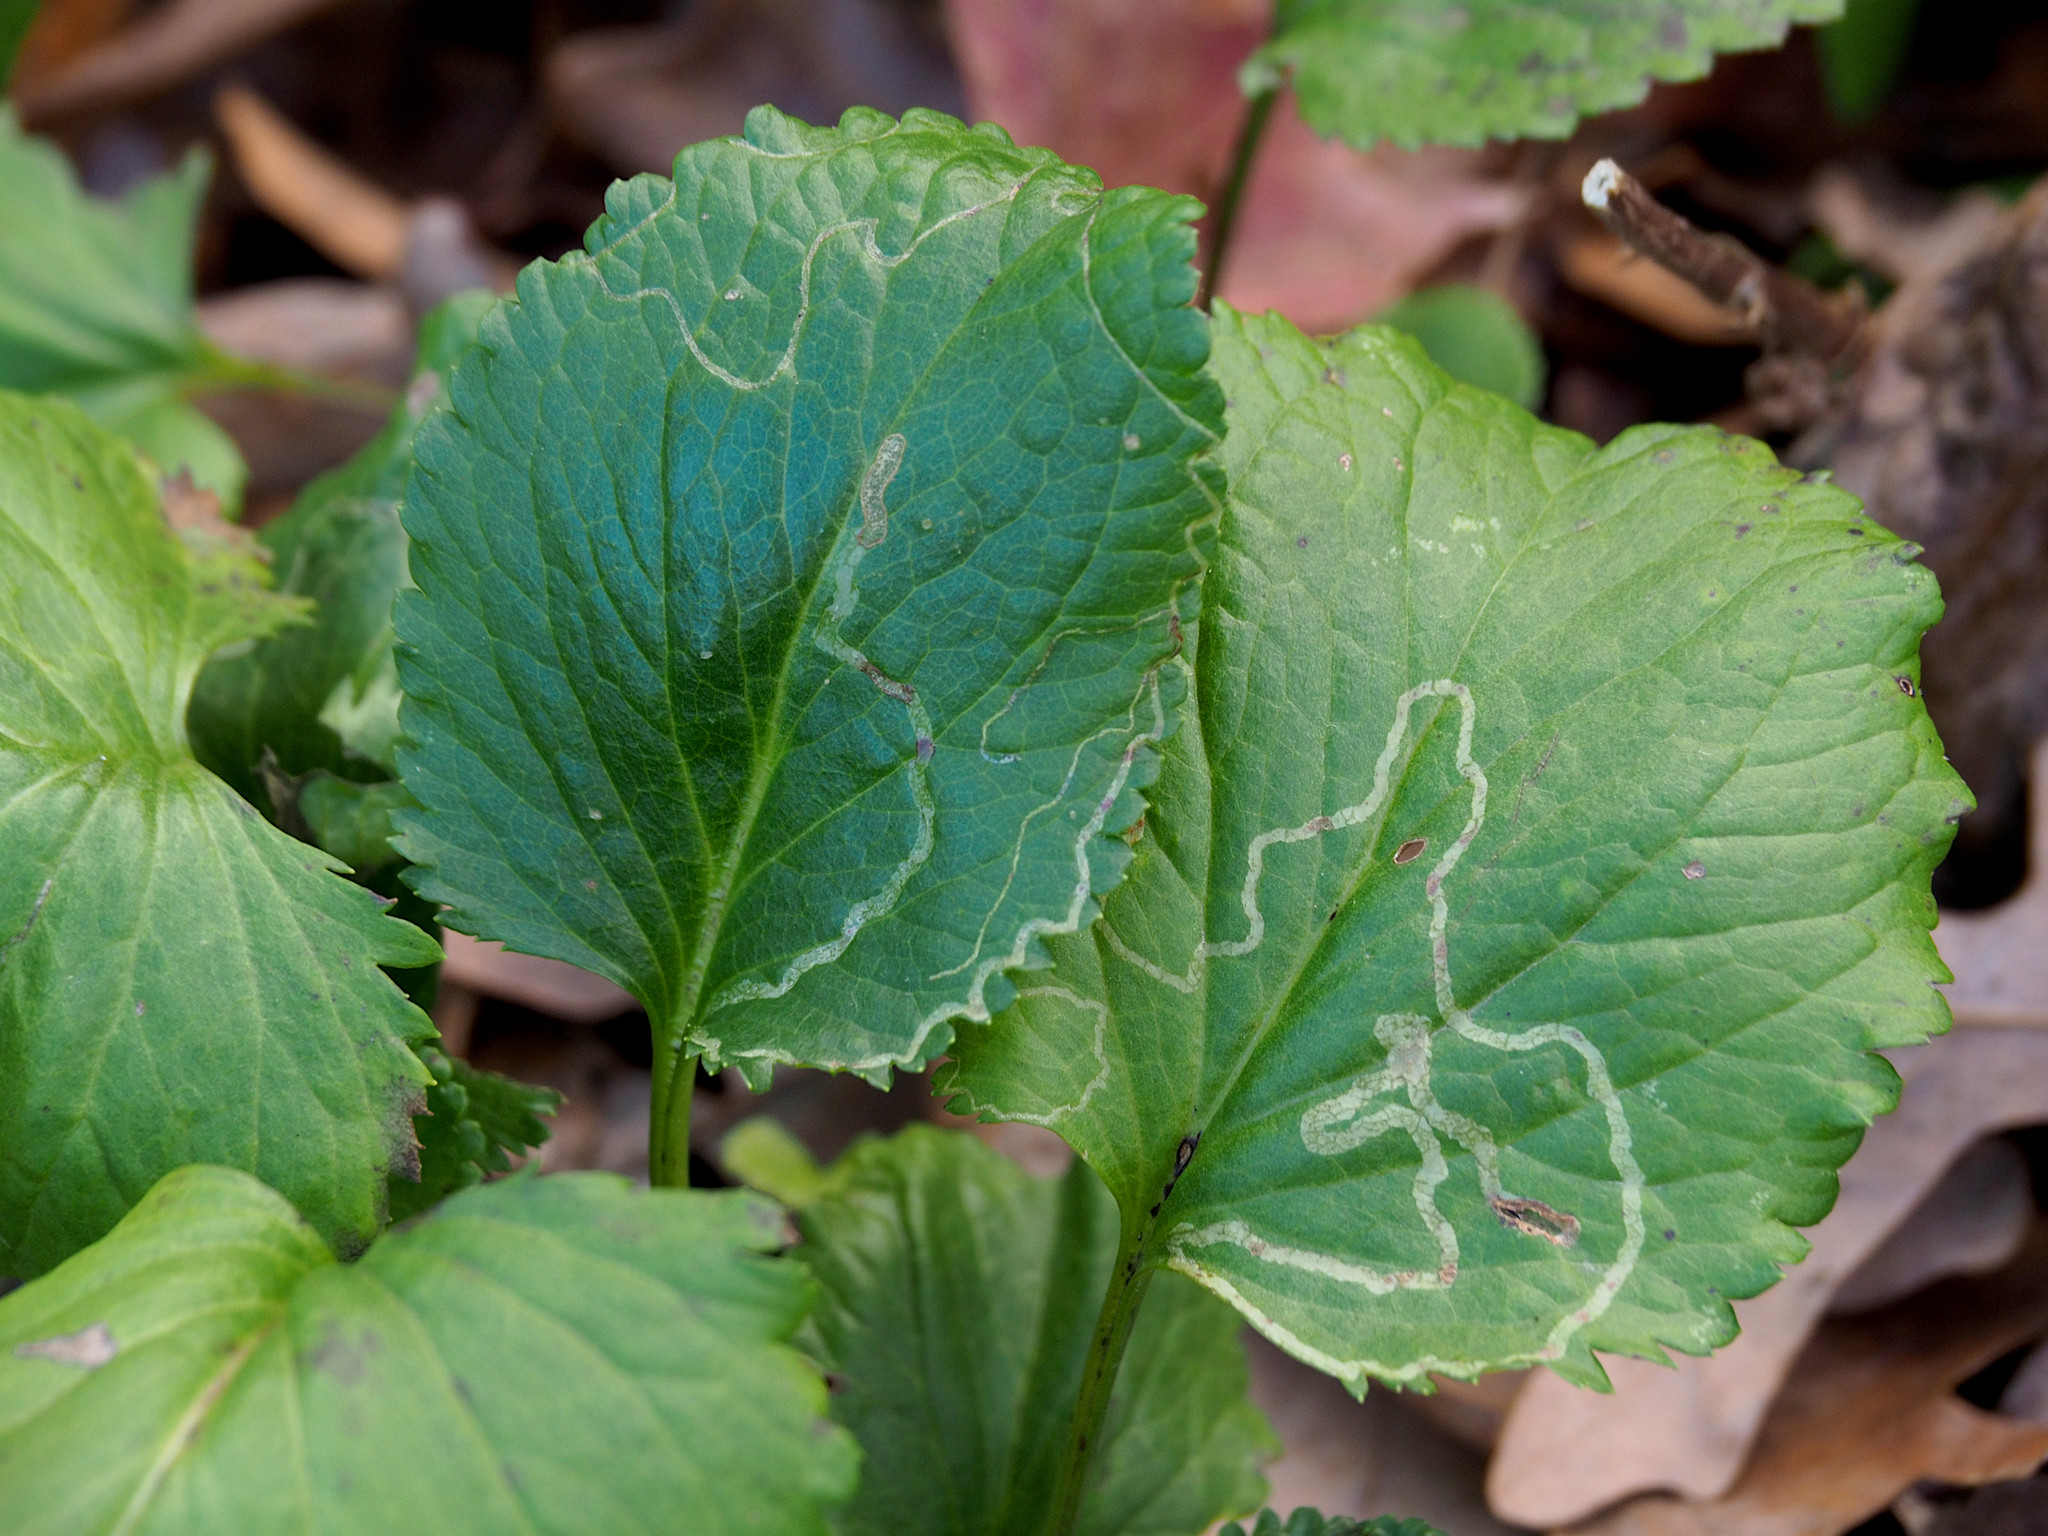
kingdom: Animalia
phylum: Arthropoda
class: Insecta
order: Lepidoptera
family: Gracillariidae
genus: Phyllocnistis
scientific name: Phyllocnistis insignis
